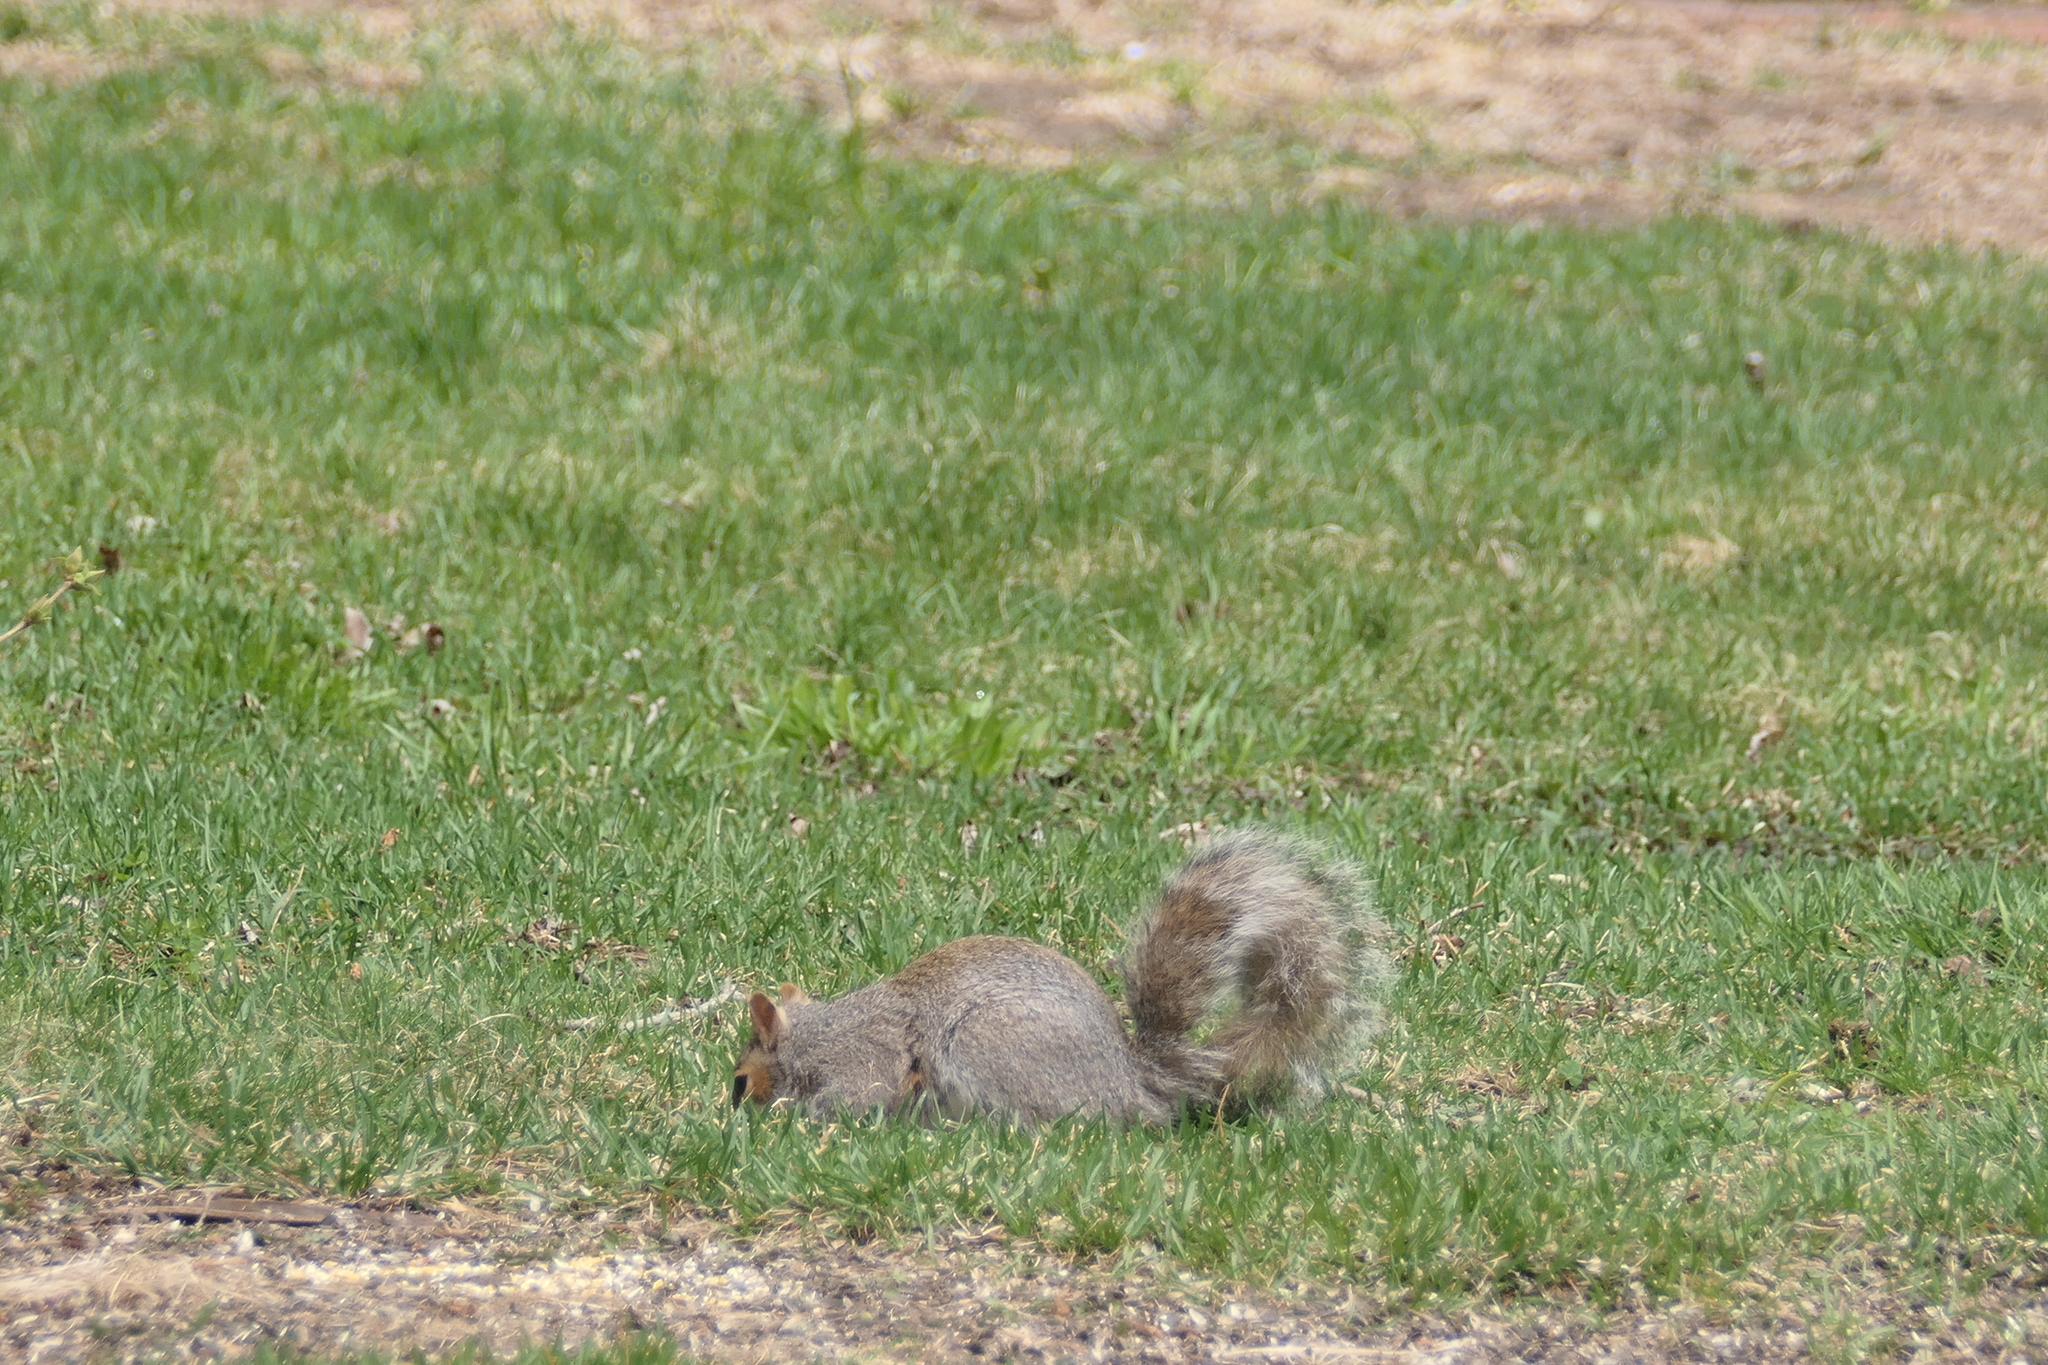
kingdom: Animalia
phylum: Chordata
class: Mammalia
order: Rodentia
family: Sciuridae
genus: Sciurus
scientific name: Sciurus carolinensis
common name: Eastern gray squirrel
